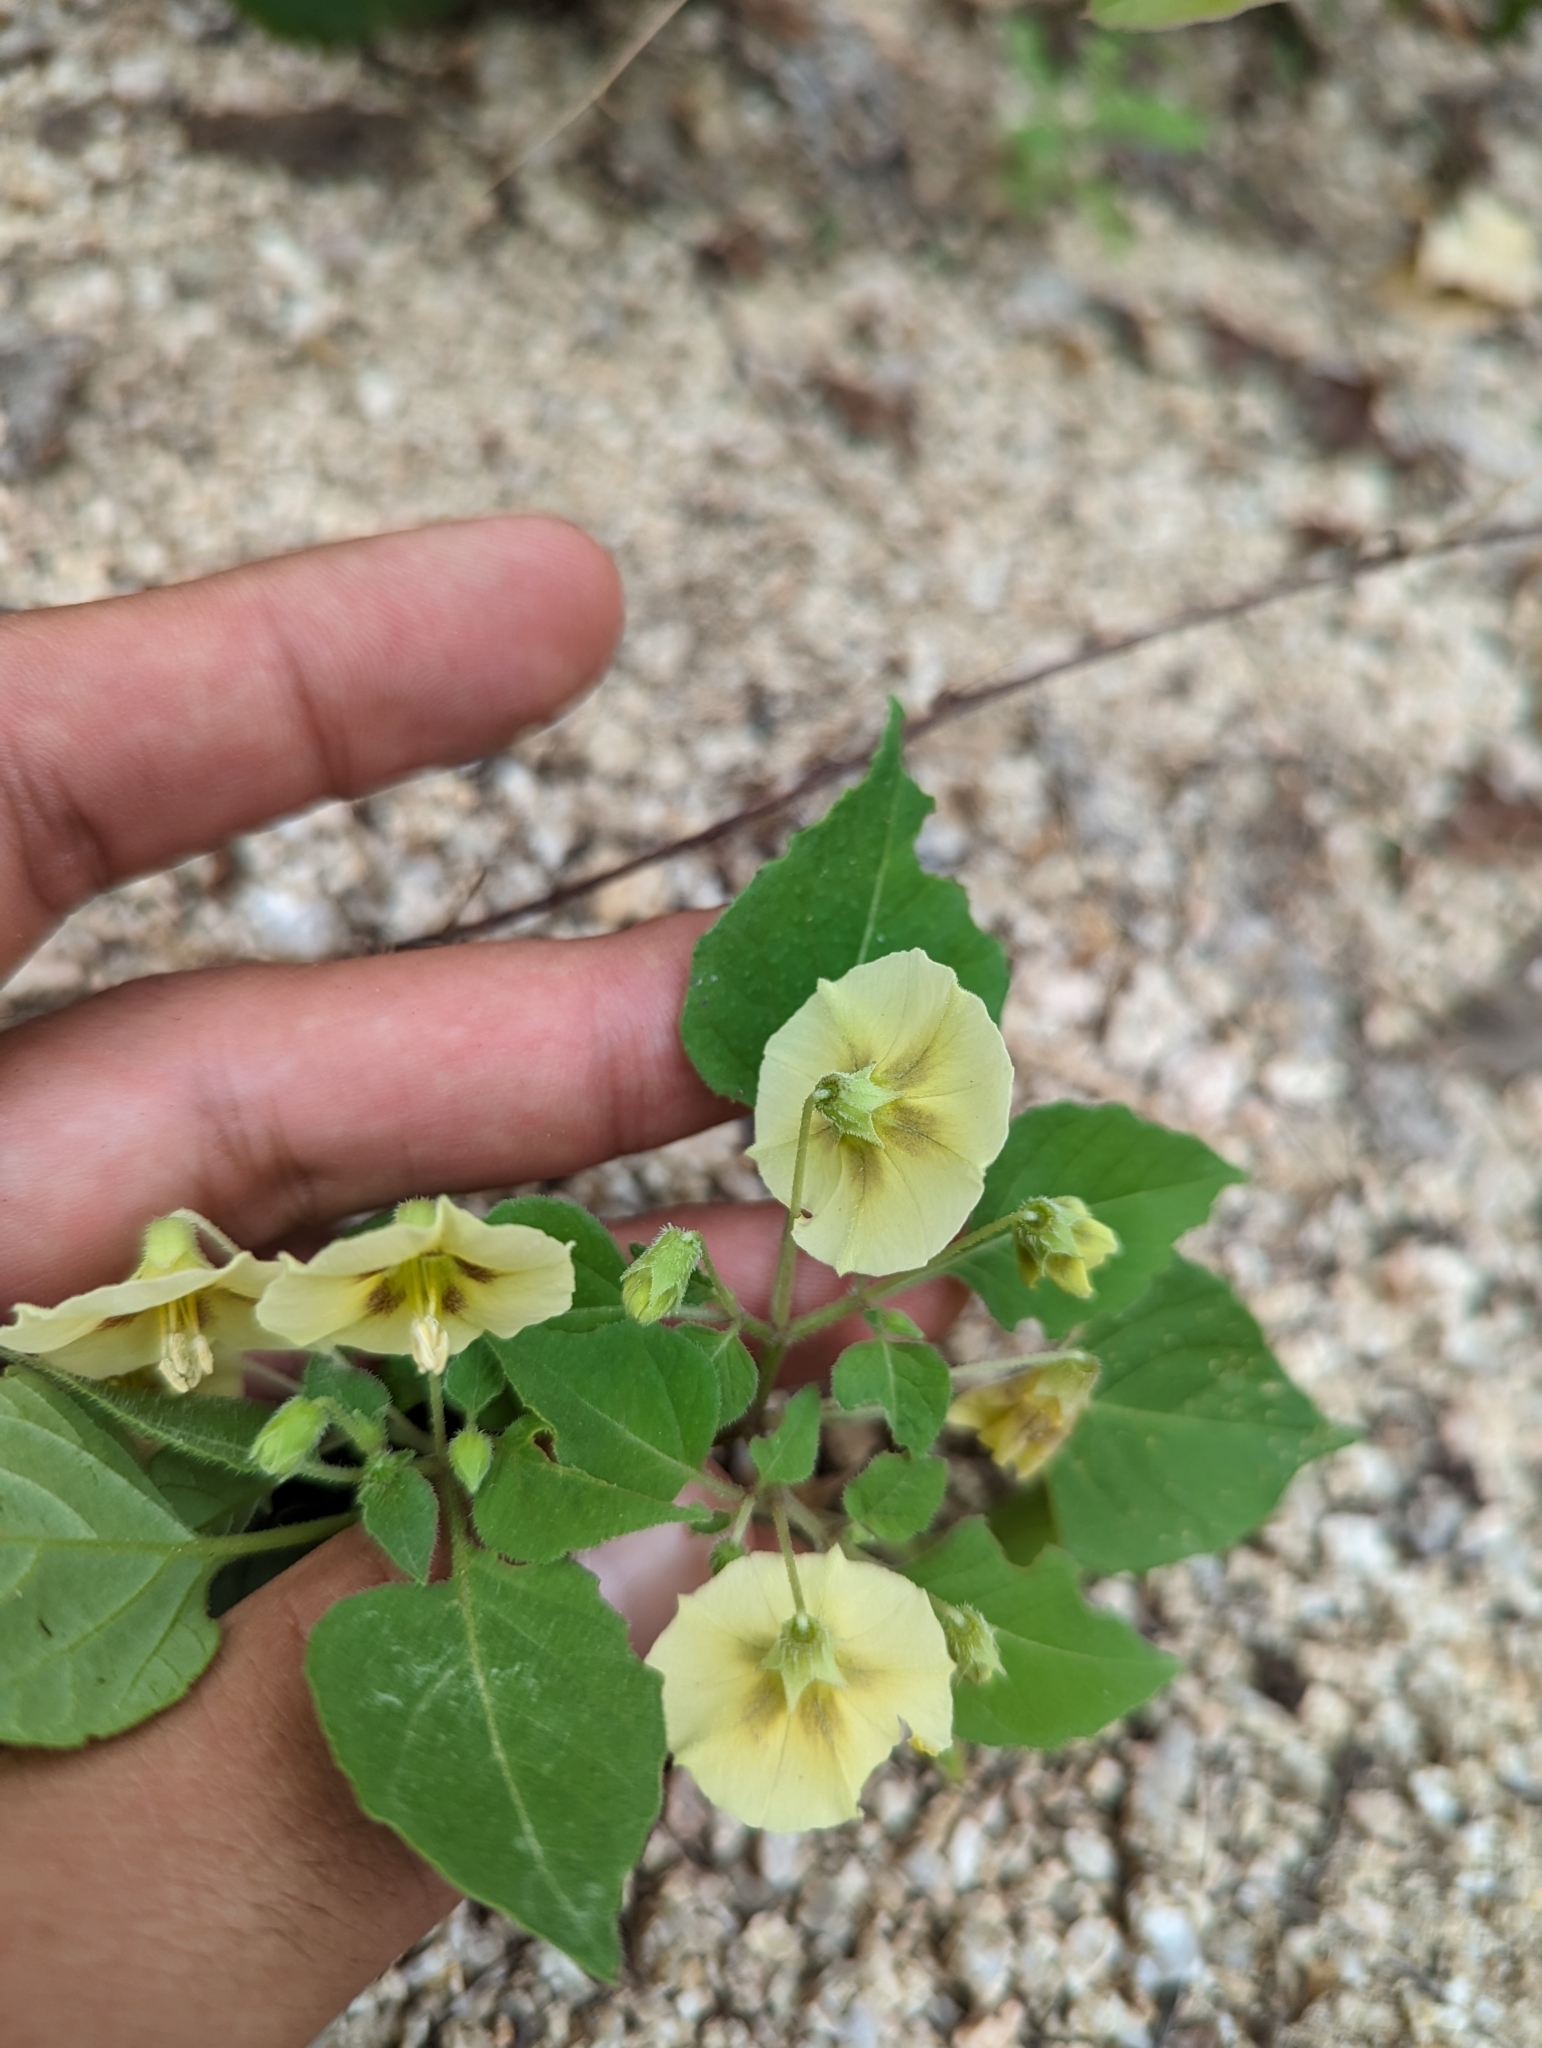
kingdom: Plantae
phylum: Tracheophyta
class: Magnoliopsida
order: Solanales
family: Solanaceae
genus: Physalis
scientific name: Physalis hederifolia
